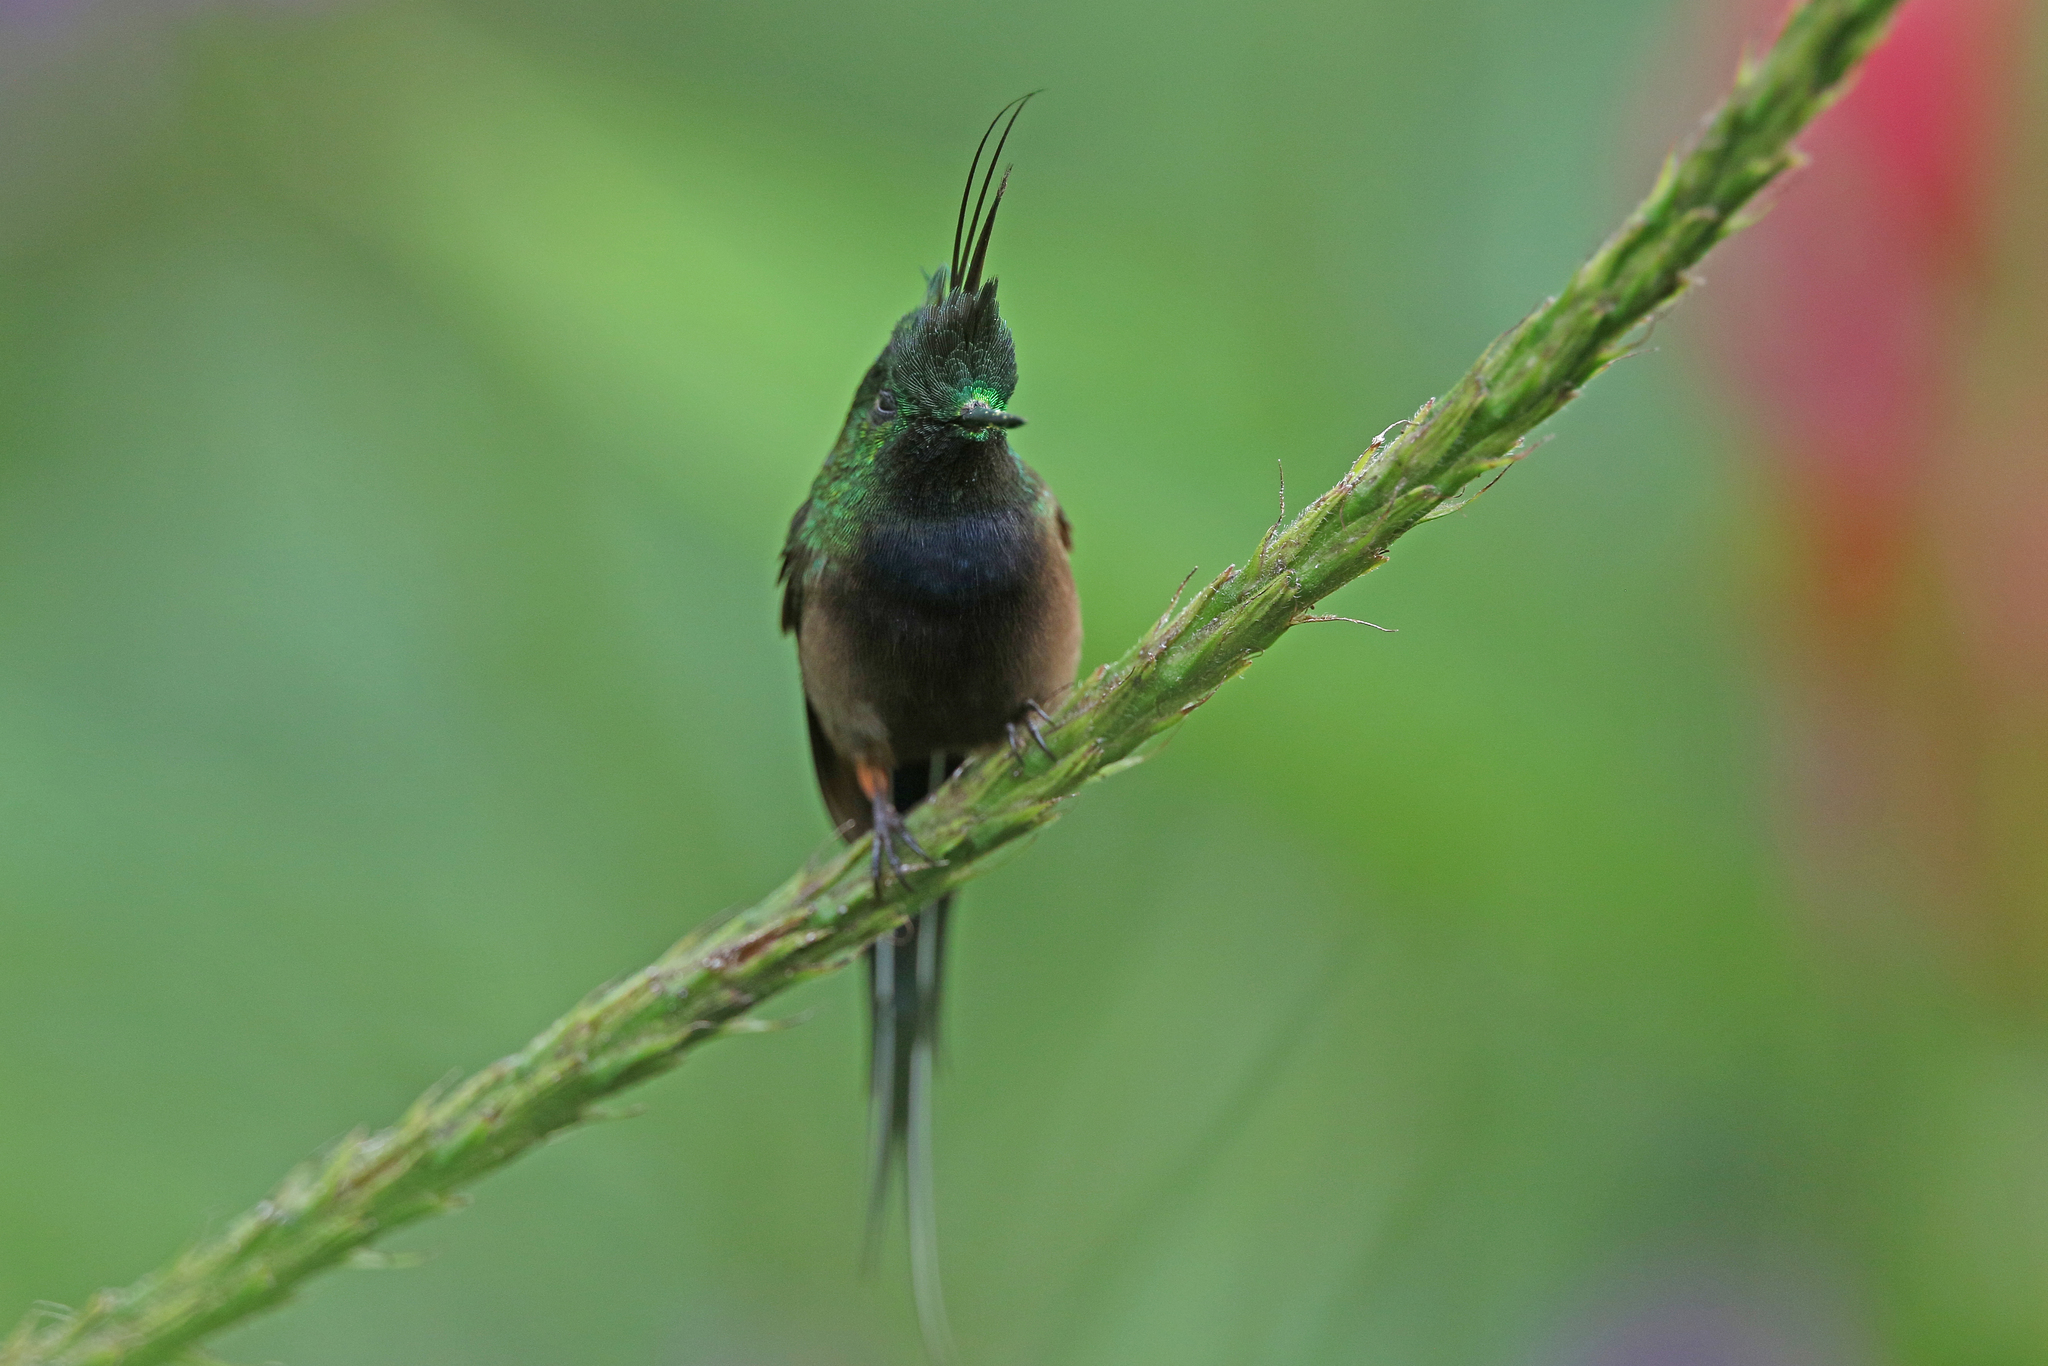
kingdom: Animalia
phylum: Chordata
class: Aves
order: Apodiformes
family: Trochilidae
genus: Discosura
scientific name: Discosura popelairii
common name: Wire-crested thorntail
